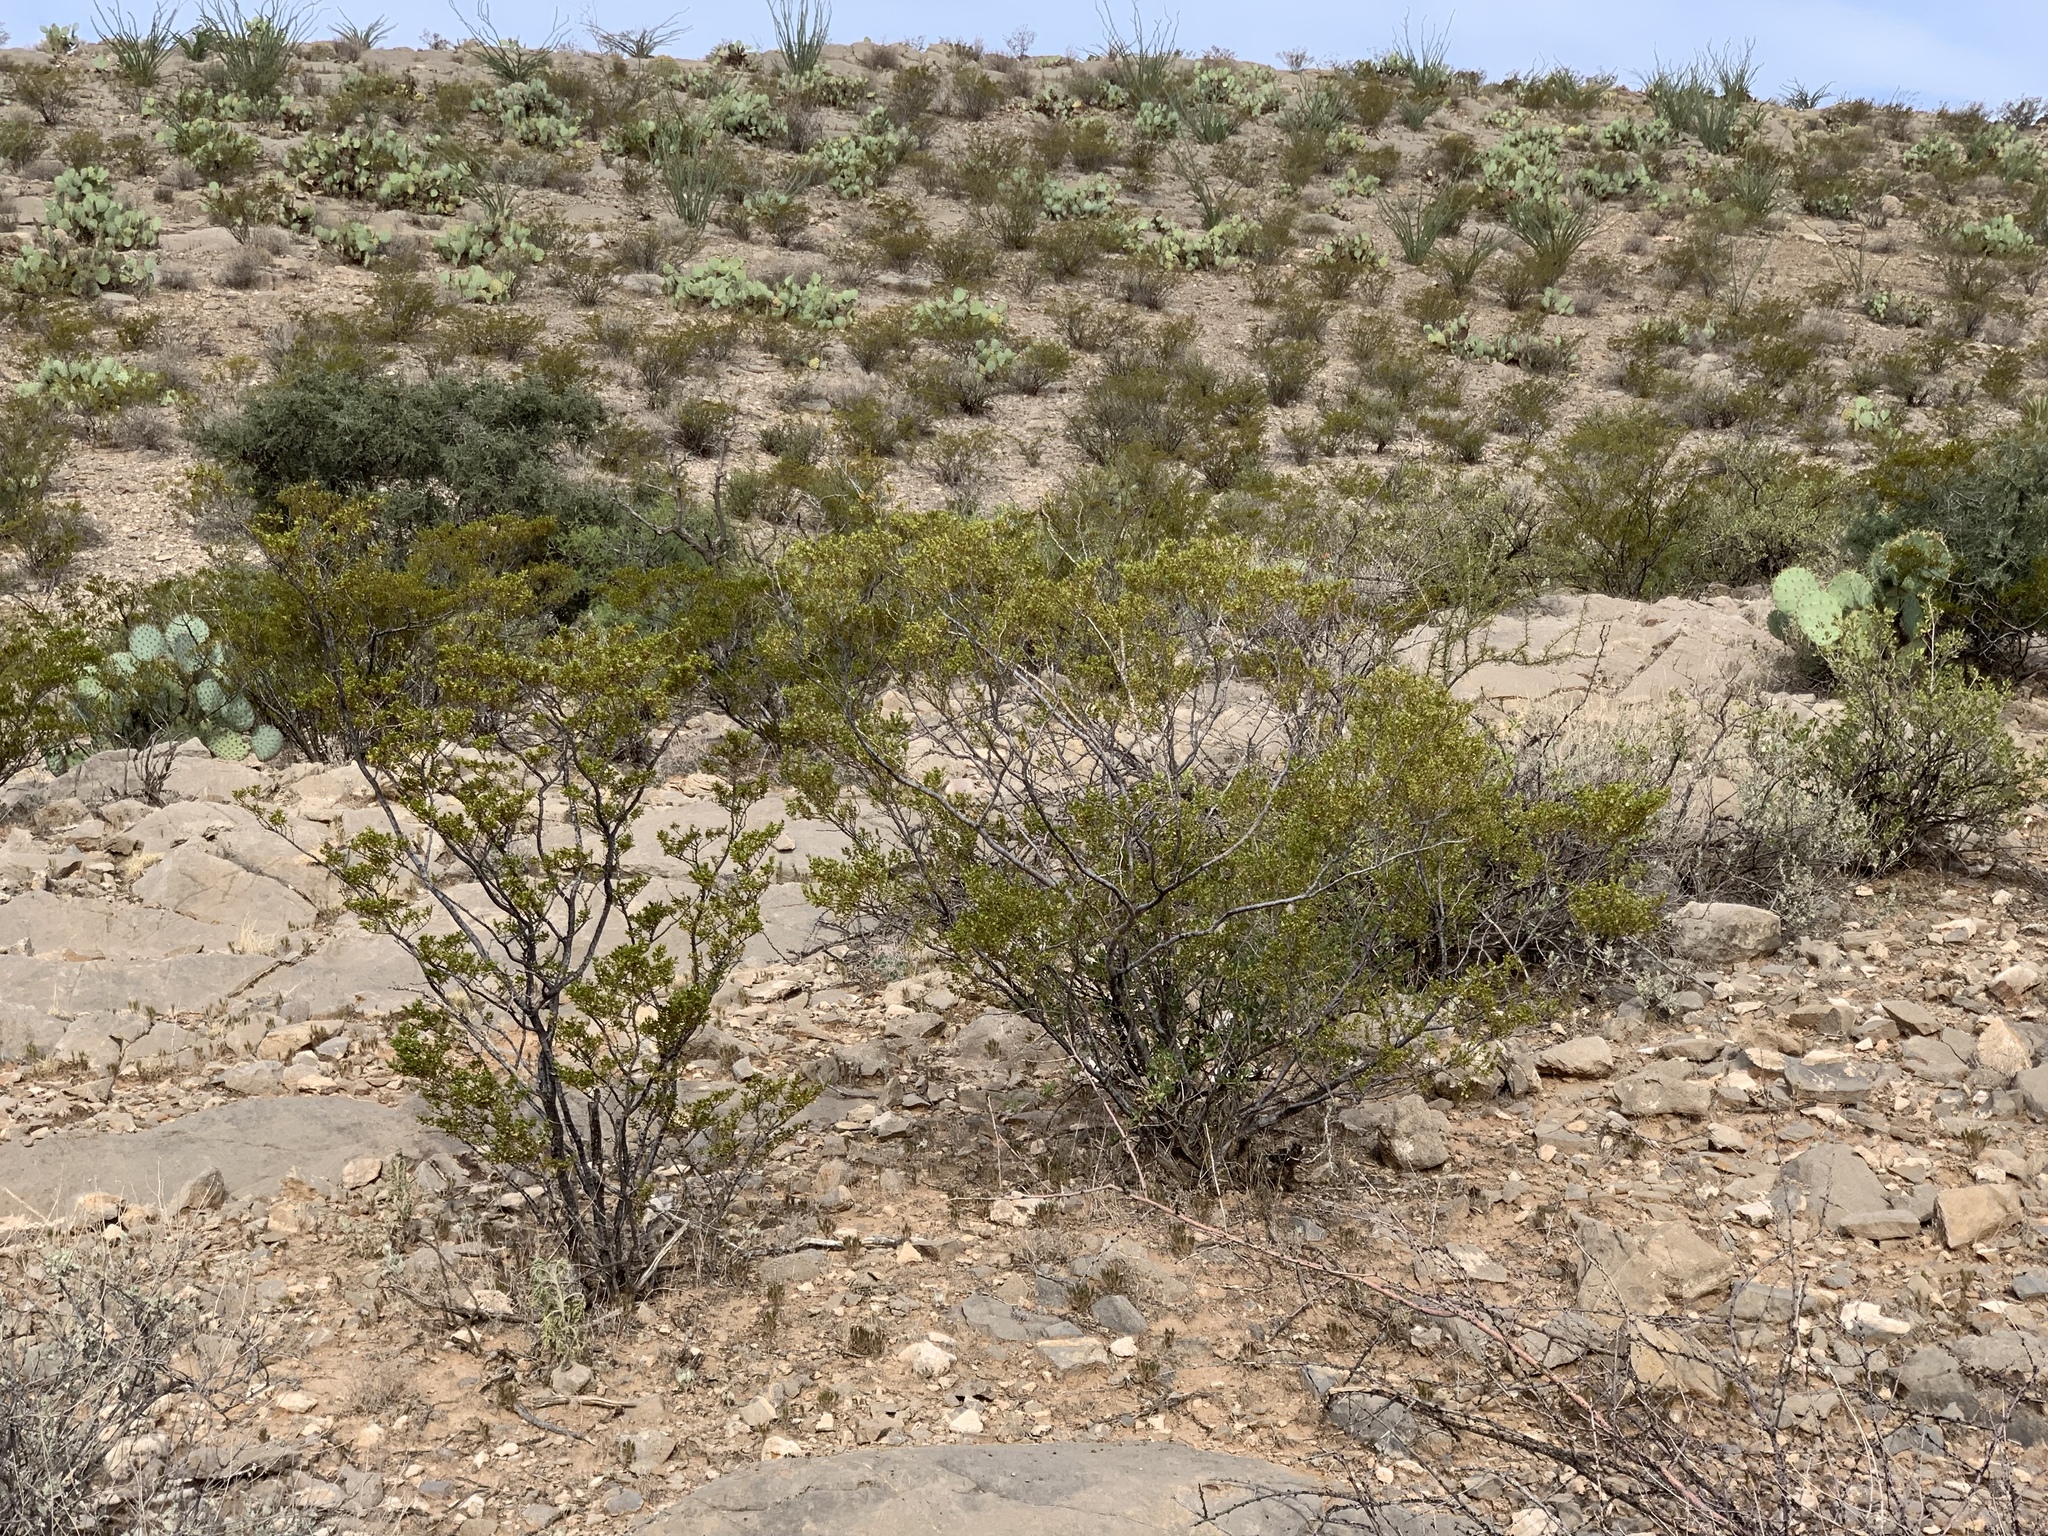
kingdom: Plantae
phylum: Tracheophyta
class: Magnoliopsida
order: Zygophyllales
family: Zygophyllaceae
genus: Larrea
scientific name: Larrea tridentata
